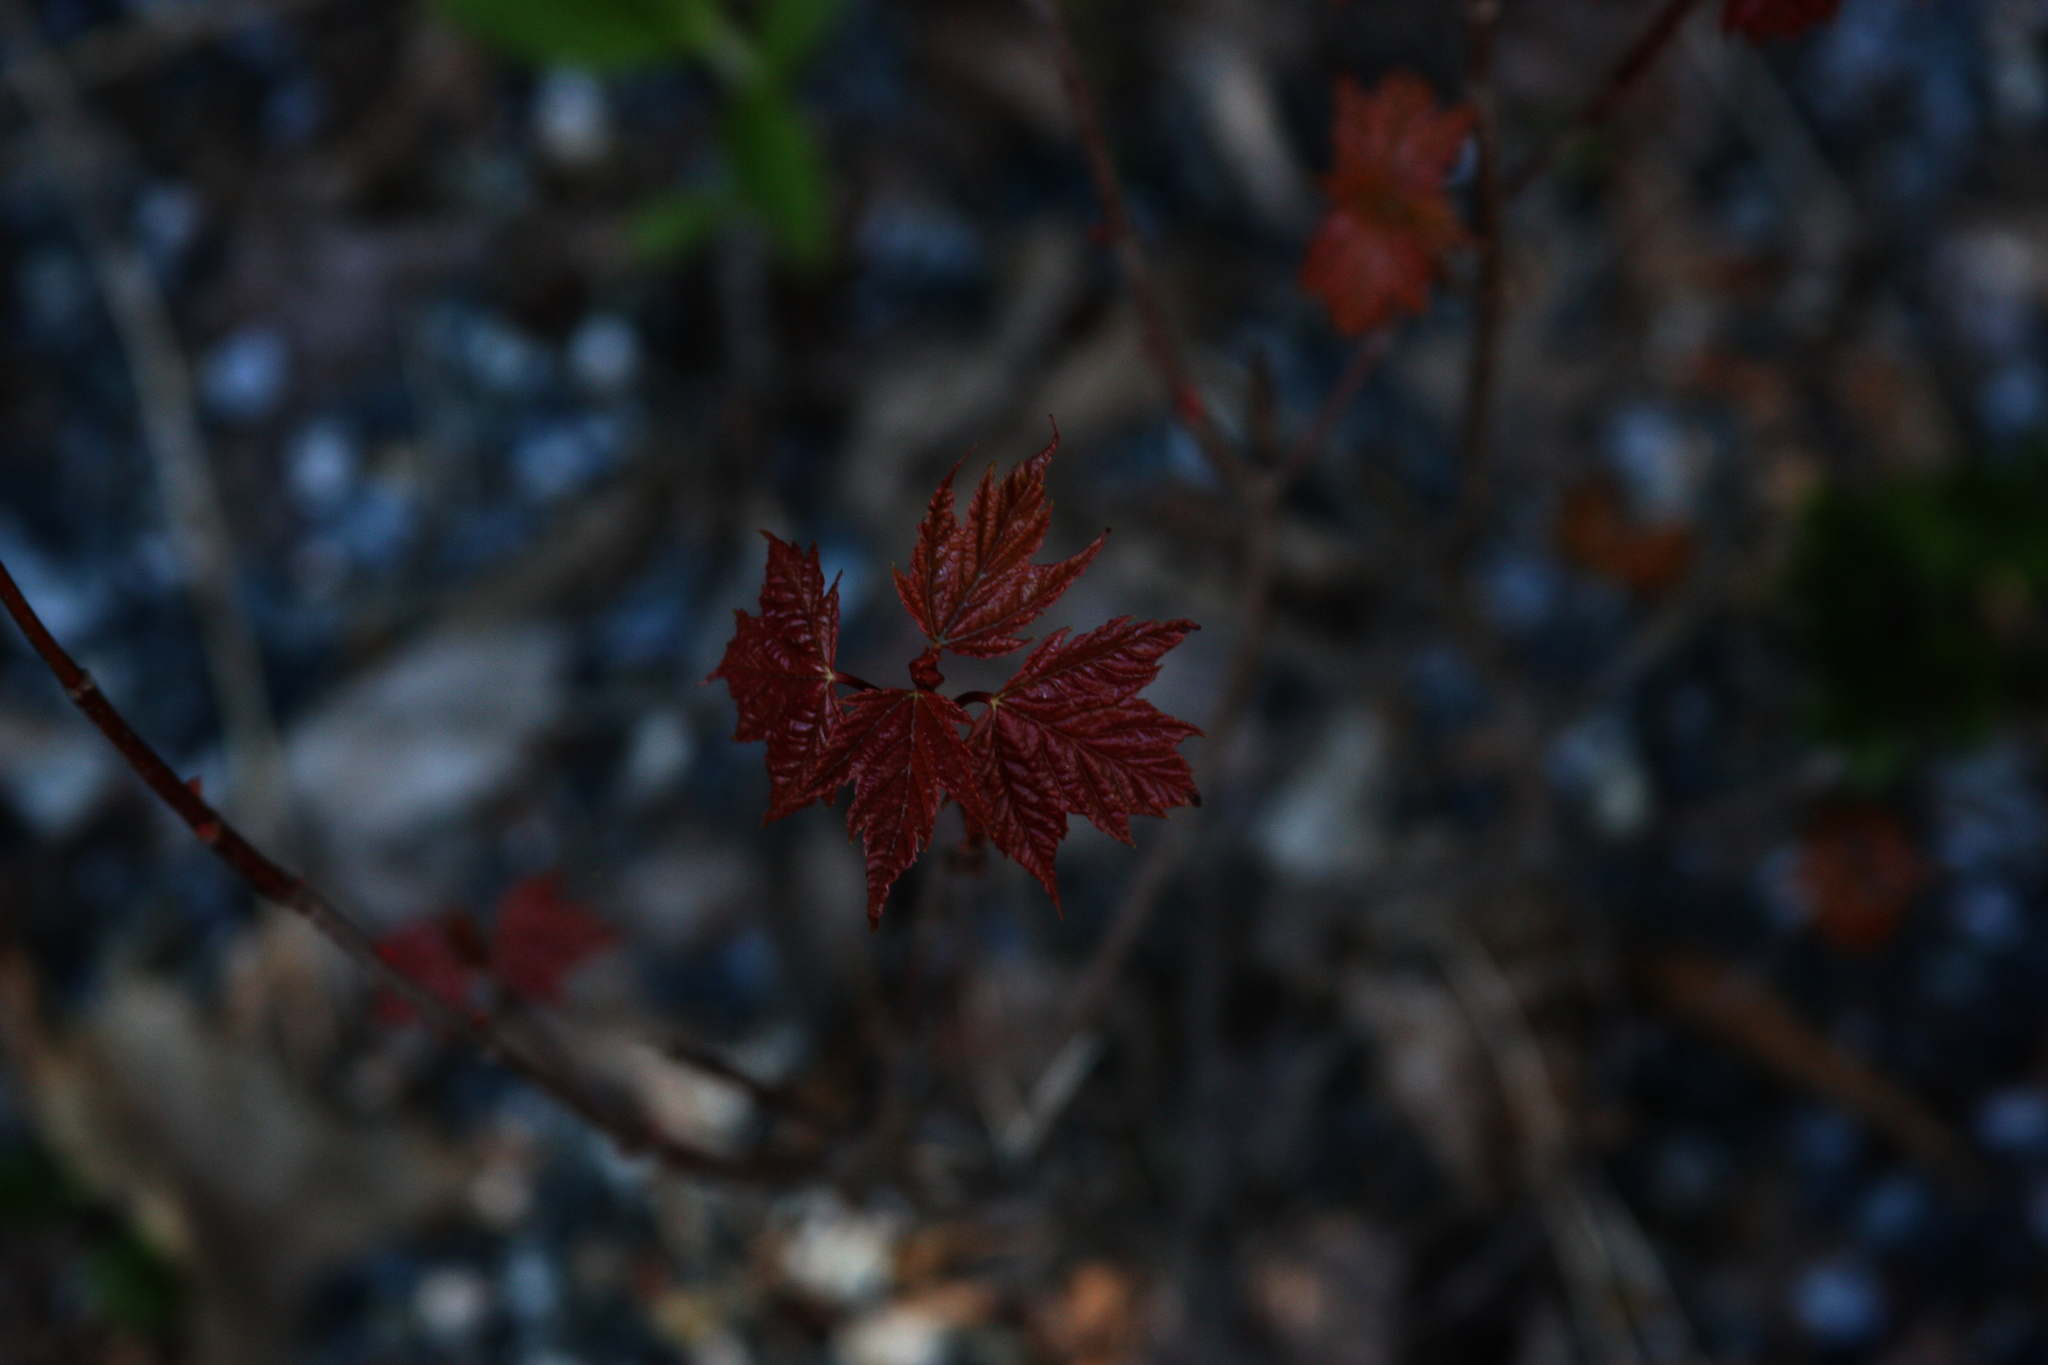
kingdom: Plantae
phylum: Tracheophyta
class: Magnoliopsida
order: Sapindales
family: Sapindaceae
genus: Acer
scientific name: Acer rubrum
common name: Red maple
